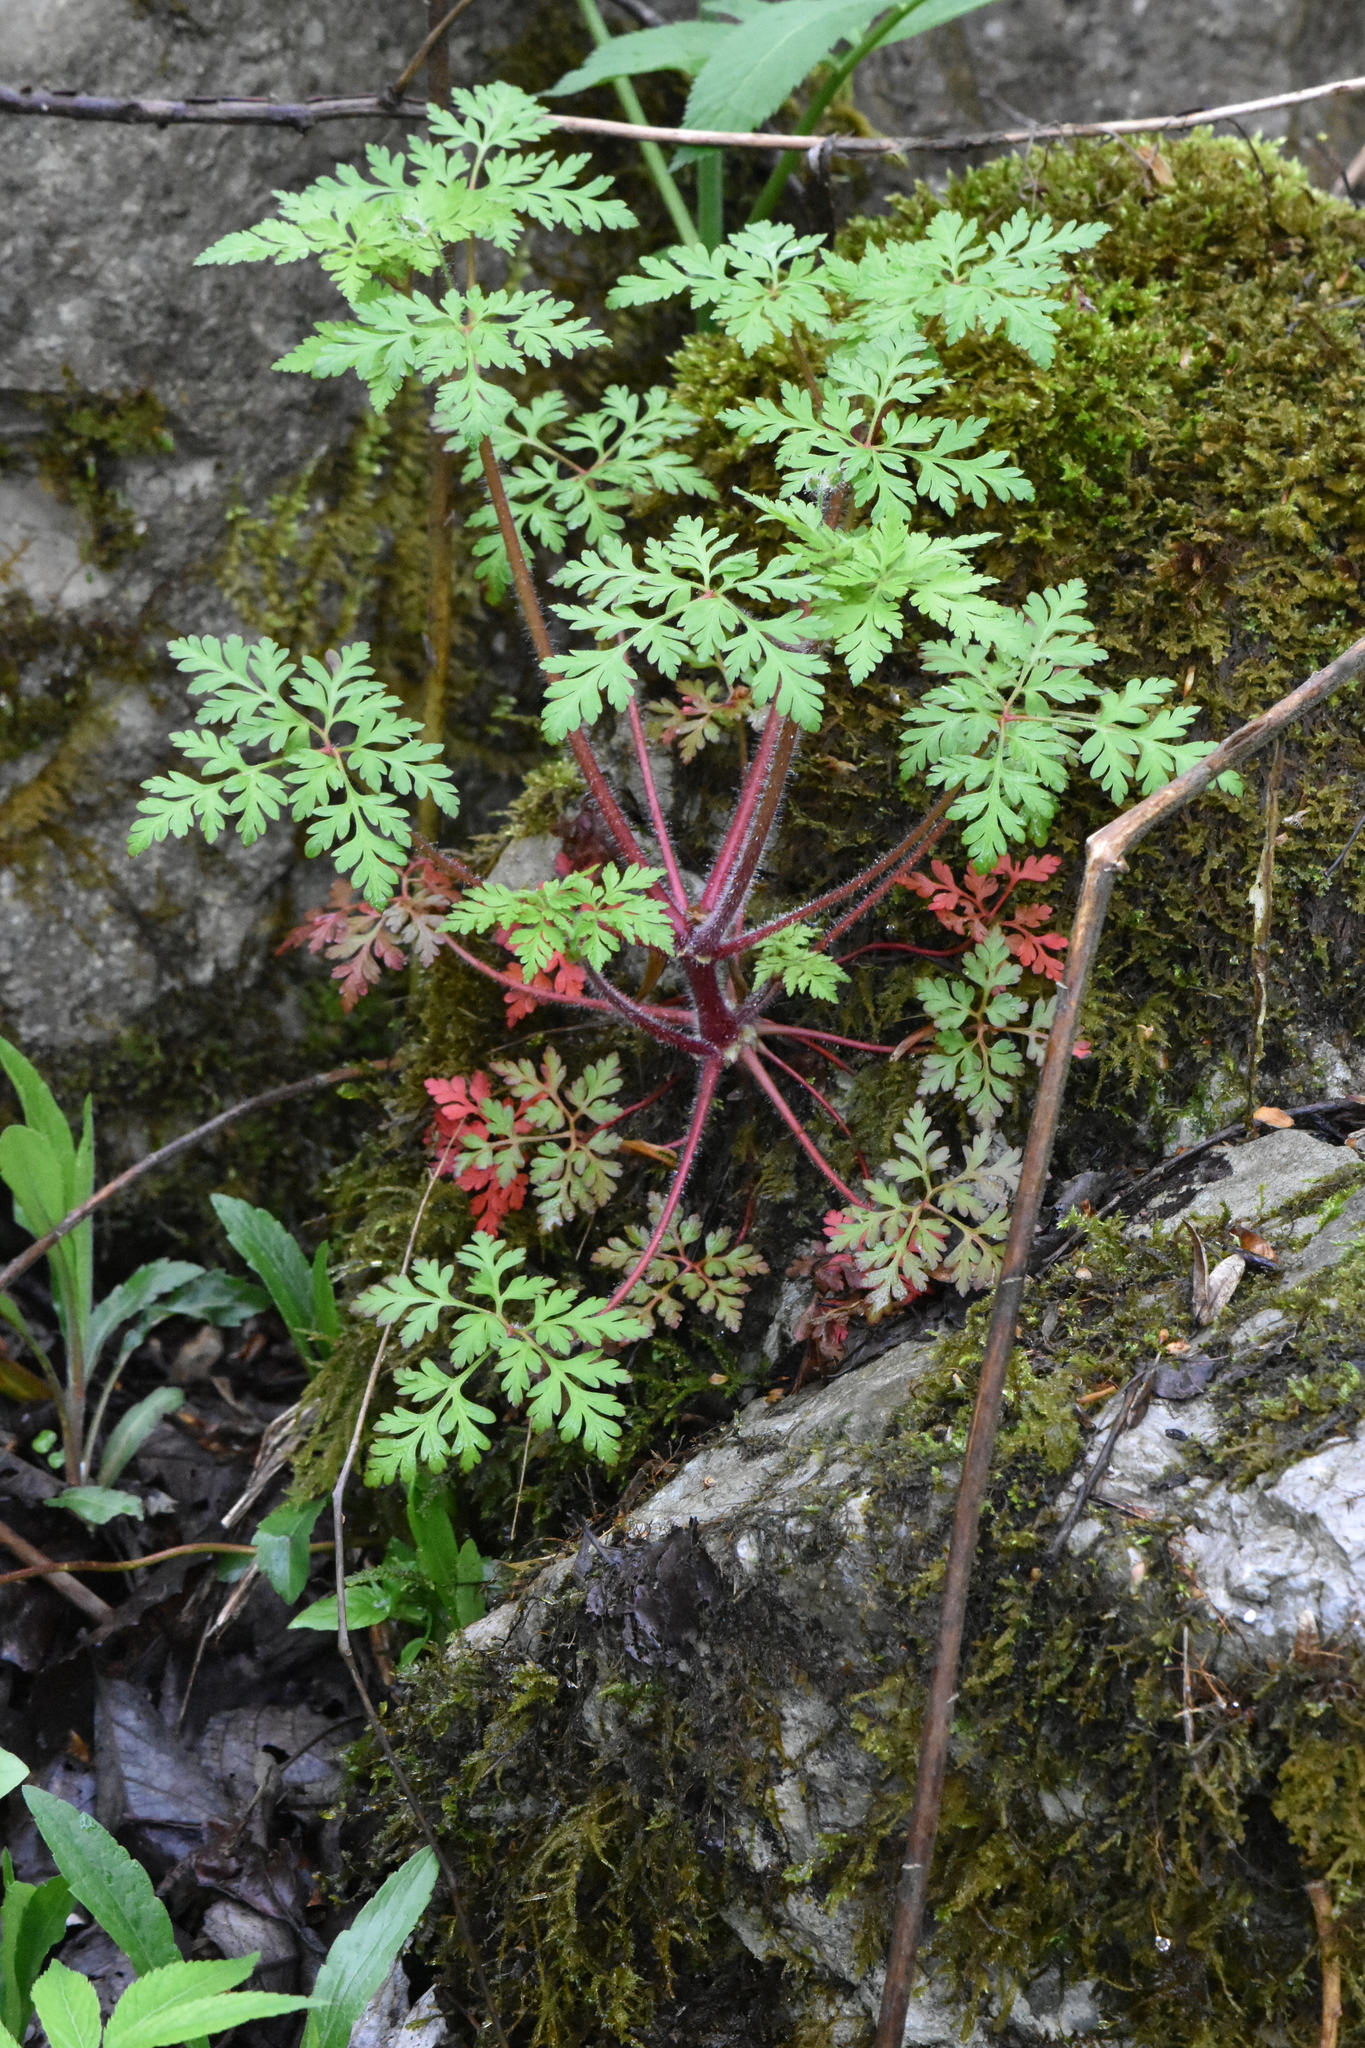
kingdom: Plantae
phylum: Tracheophyta
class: Magnoliopsida
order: Geraniales
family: Geraniaceae
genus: Geranium
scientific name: Geranium robertianum
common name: Herb-robert
